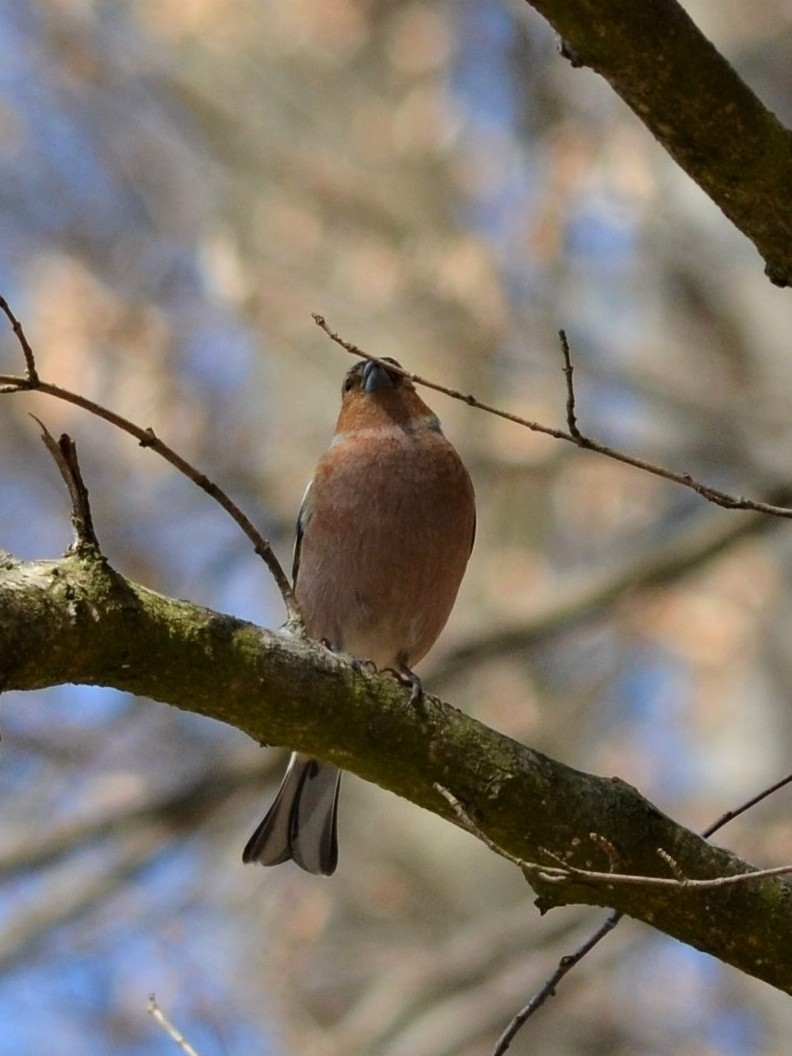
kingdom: Animalia
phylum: Chordata
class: Aves
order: Passeriformes
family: Fringillidae
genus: Fringilla
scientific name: Fringilla coelebs
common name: Common chaffinch
